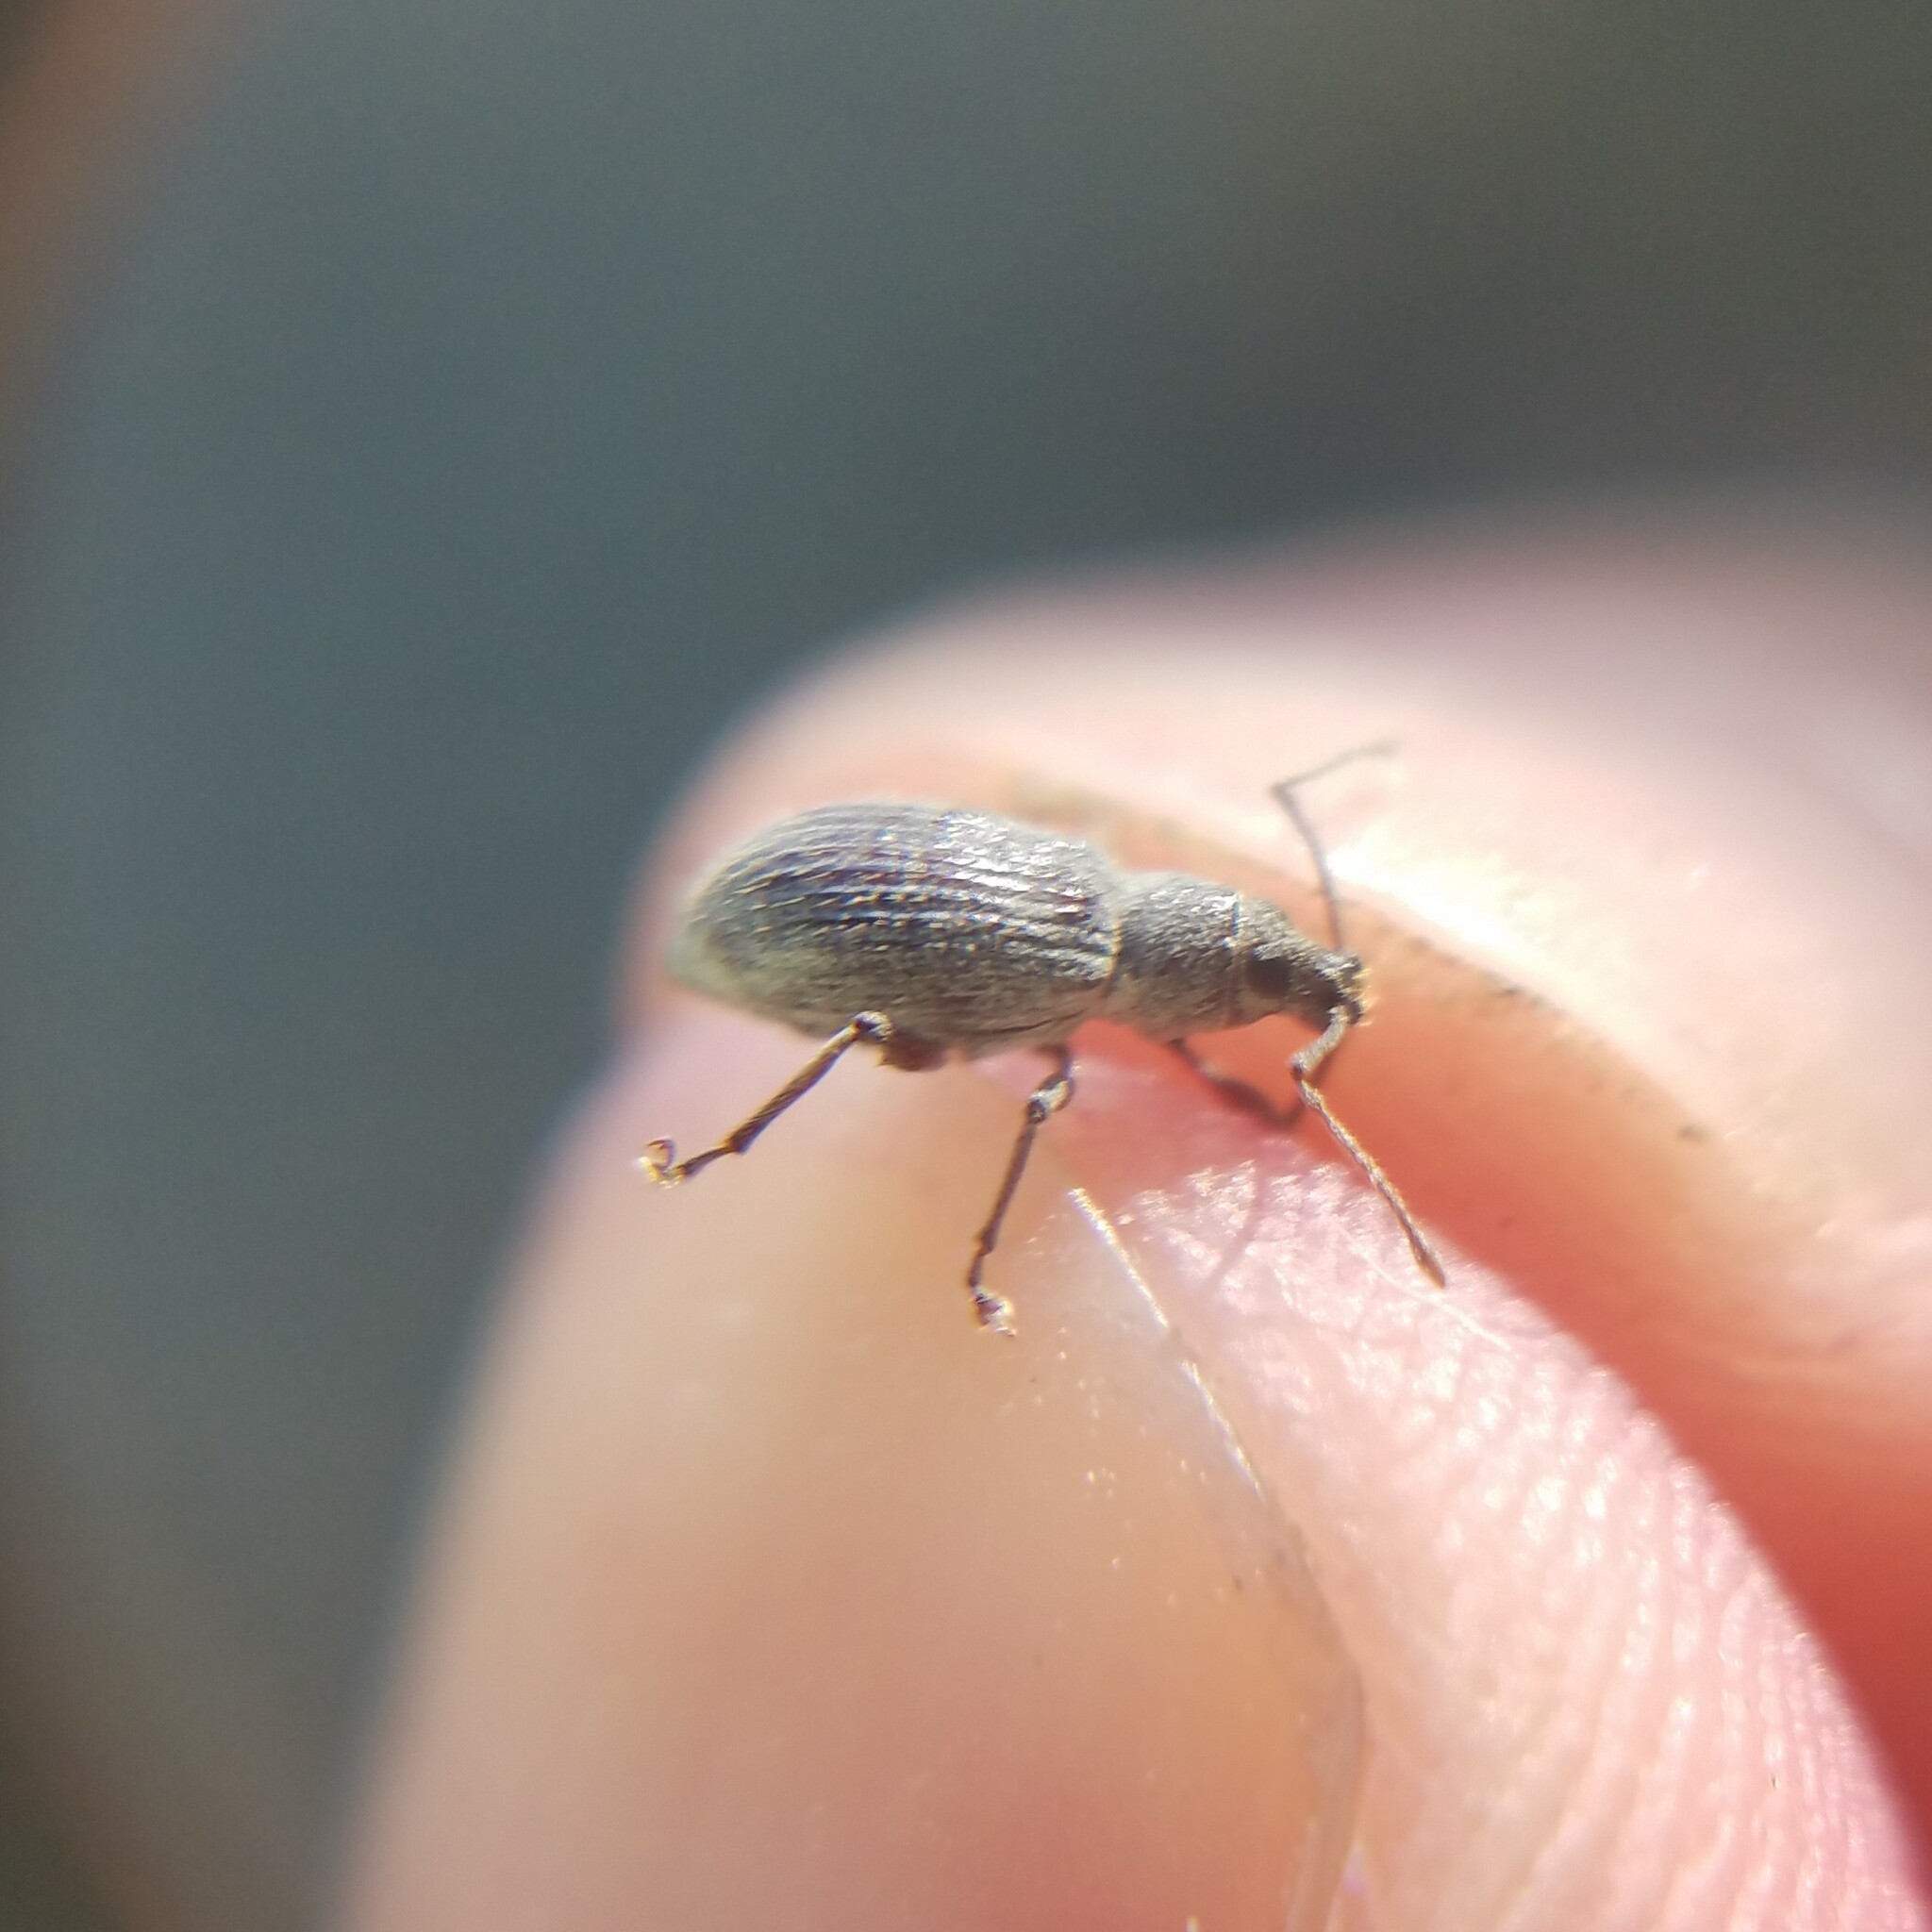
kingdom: Animalia
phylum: Arthropoda
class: Insecta
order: Coleoptera
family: Curculionidae
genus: Cyrtepistomus
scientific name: Cyrtepistomus castaneus
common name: Weevil
